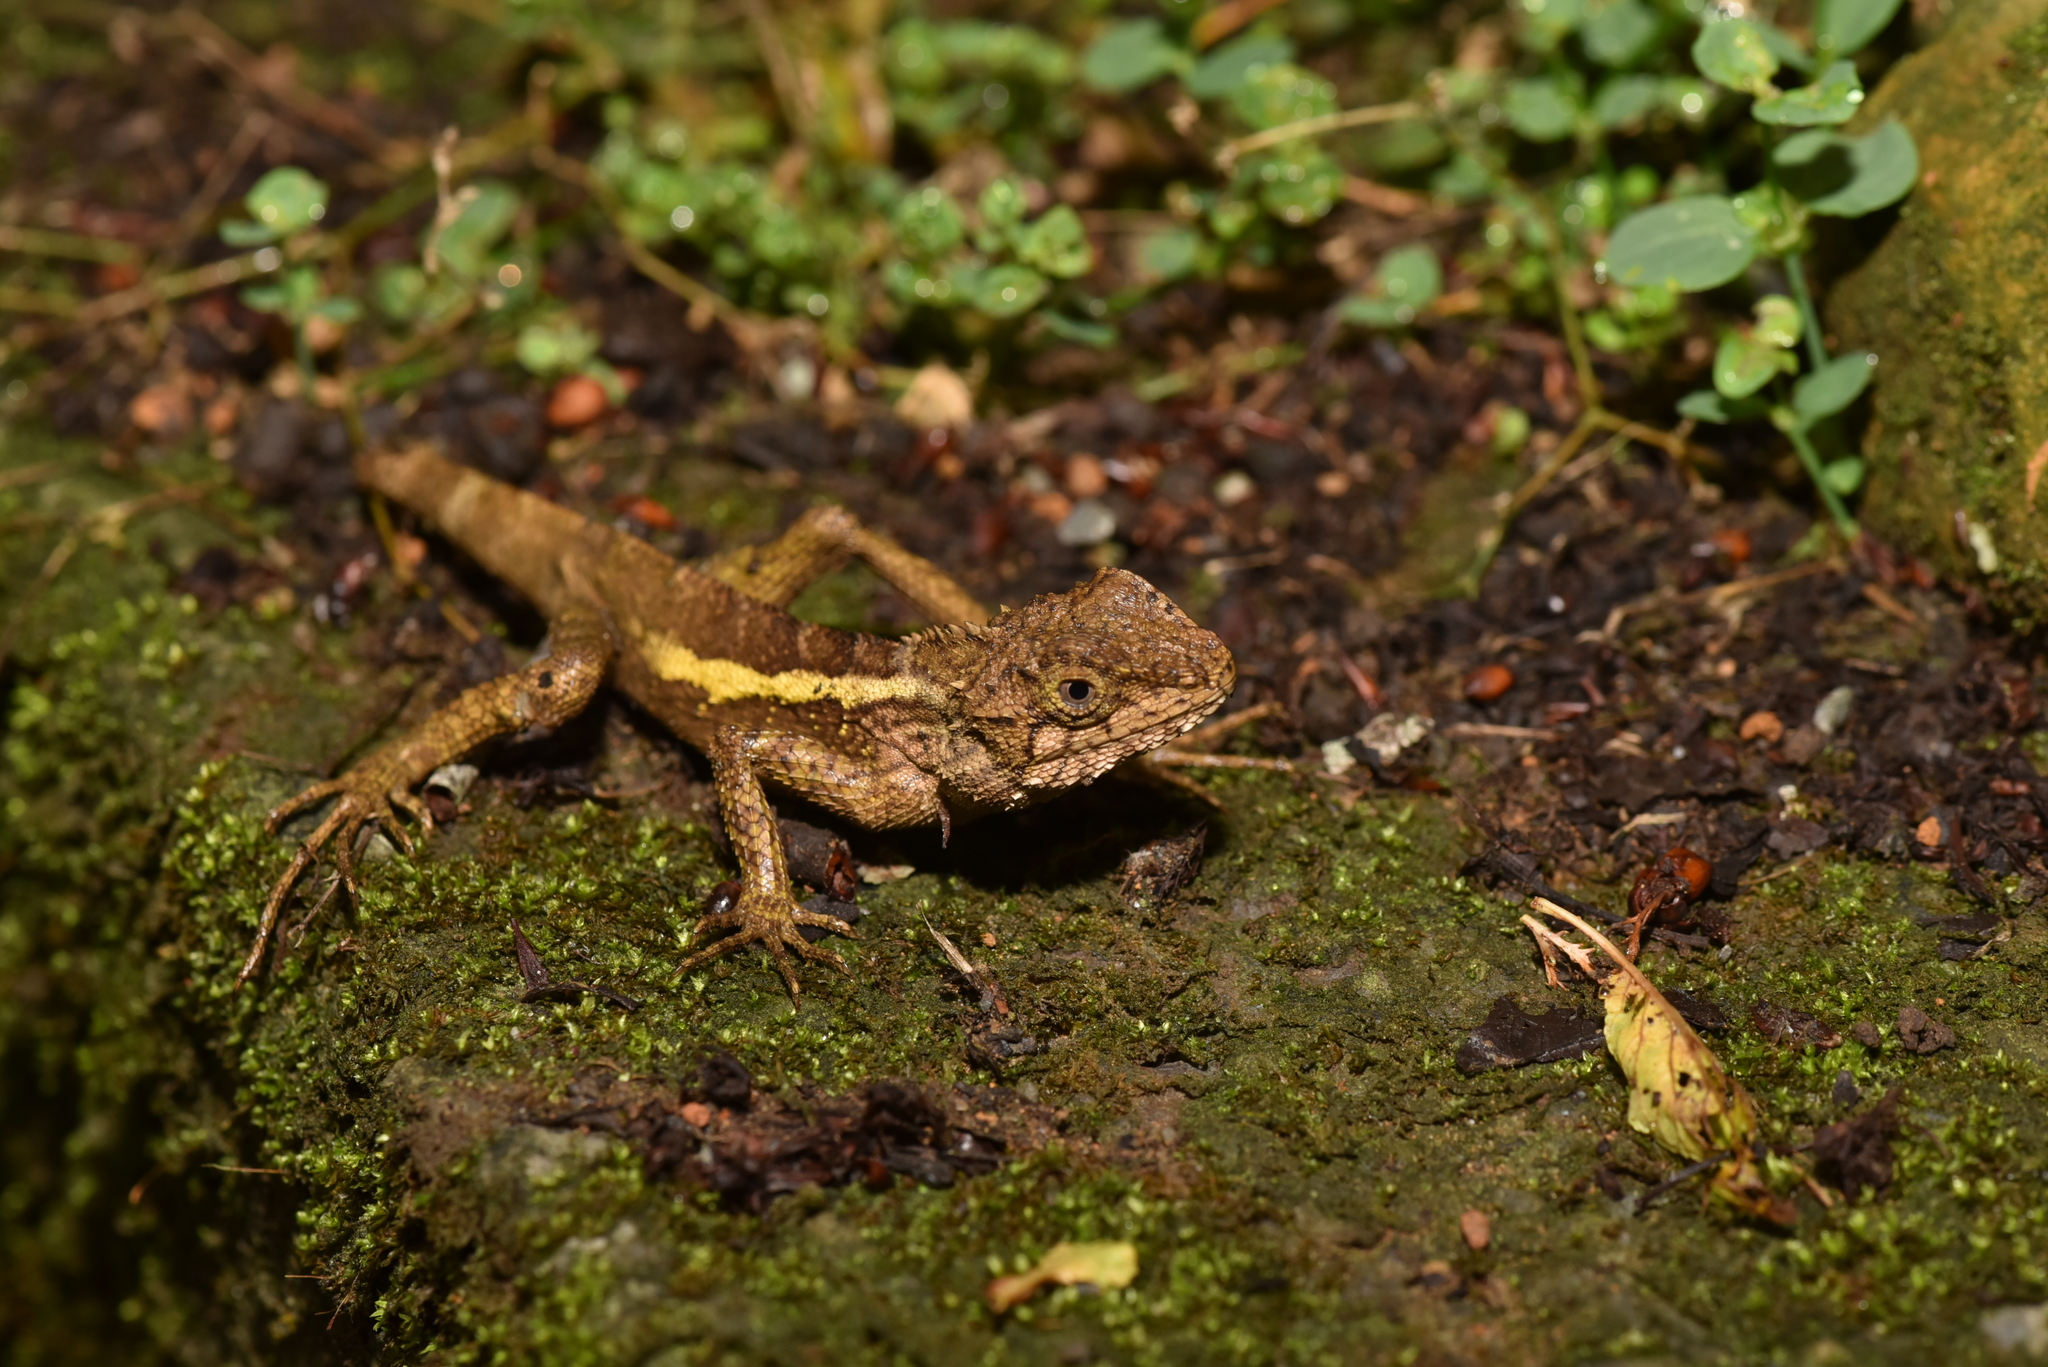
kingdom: Animalia
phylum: Chordata
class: Squamata
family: Agamidae
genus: Diploderma
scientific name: Diploderma swinhonis
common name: Taiwan japalure
